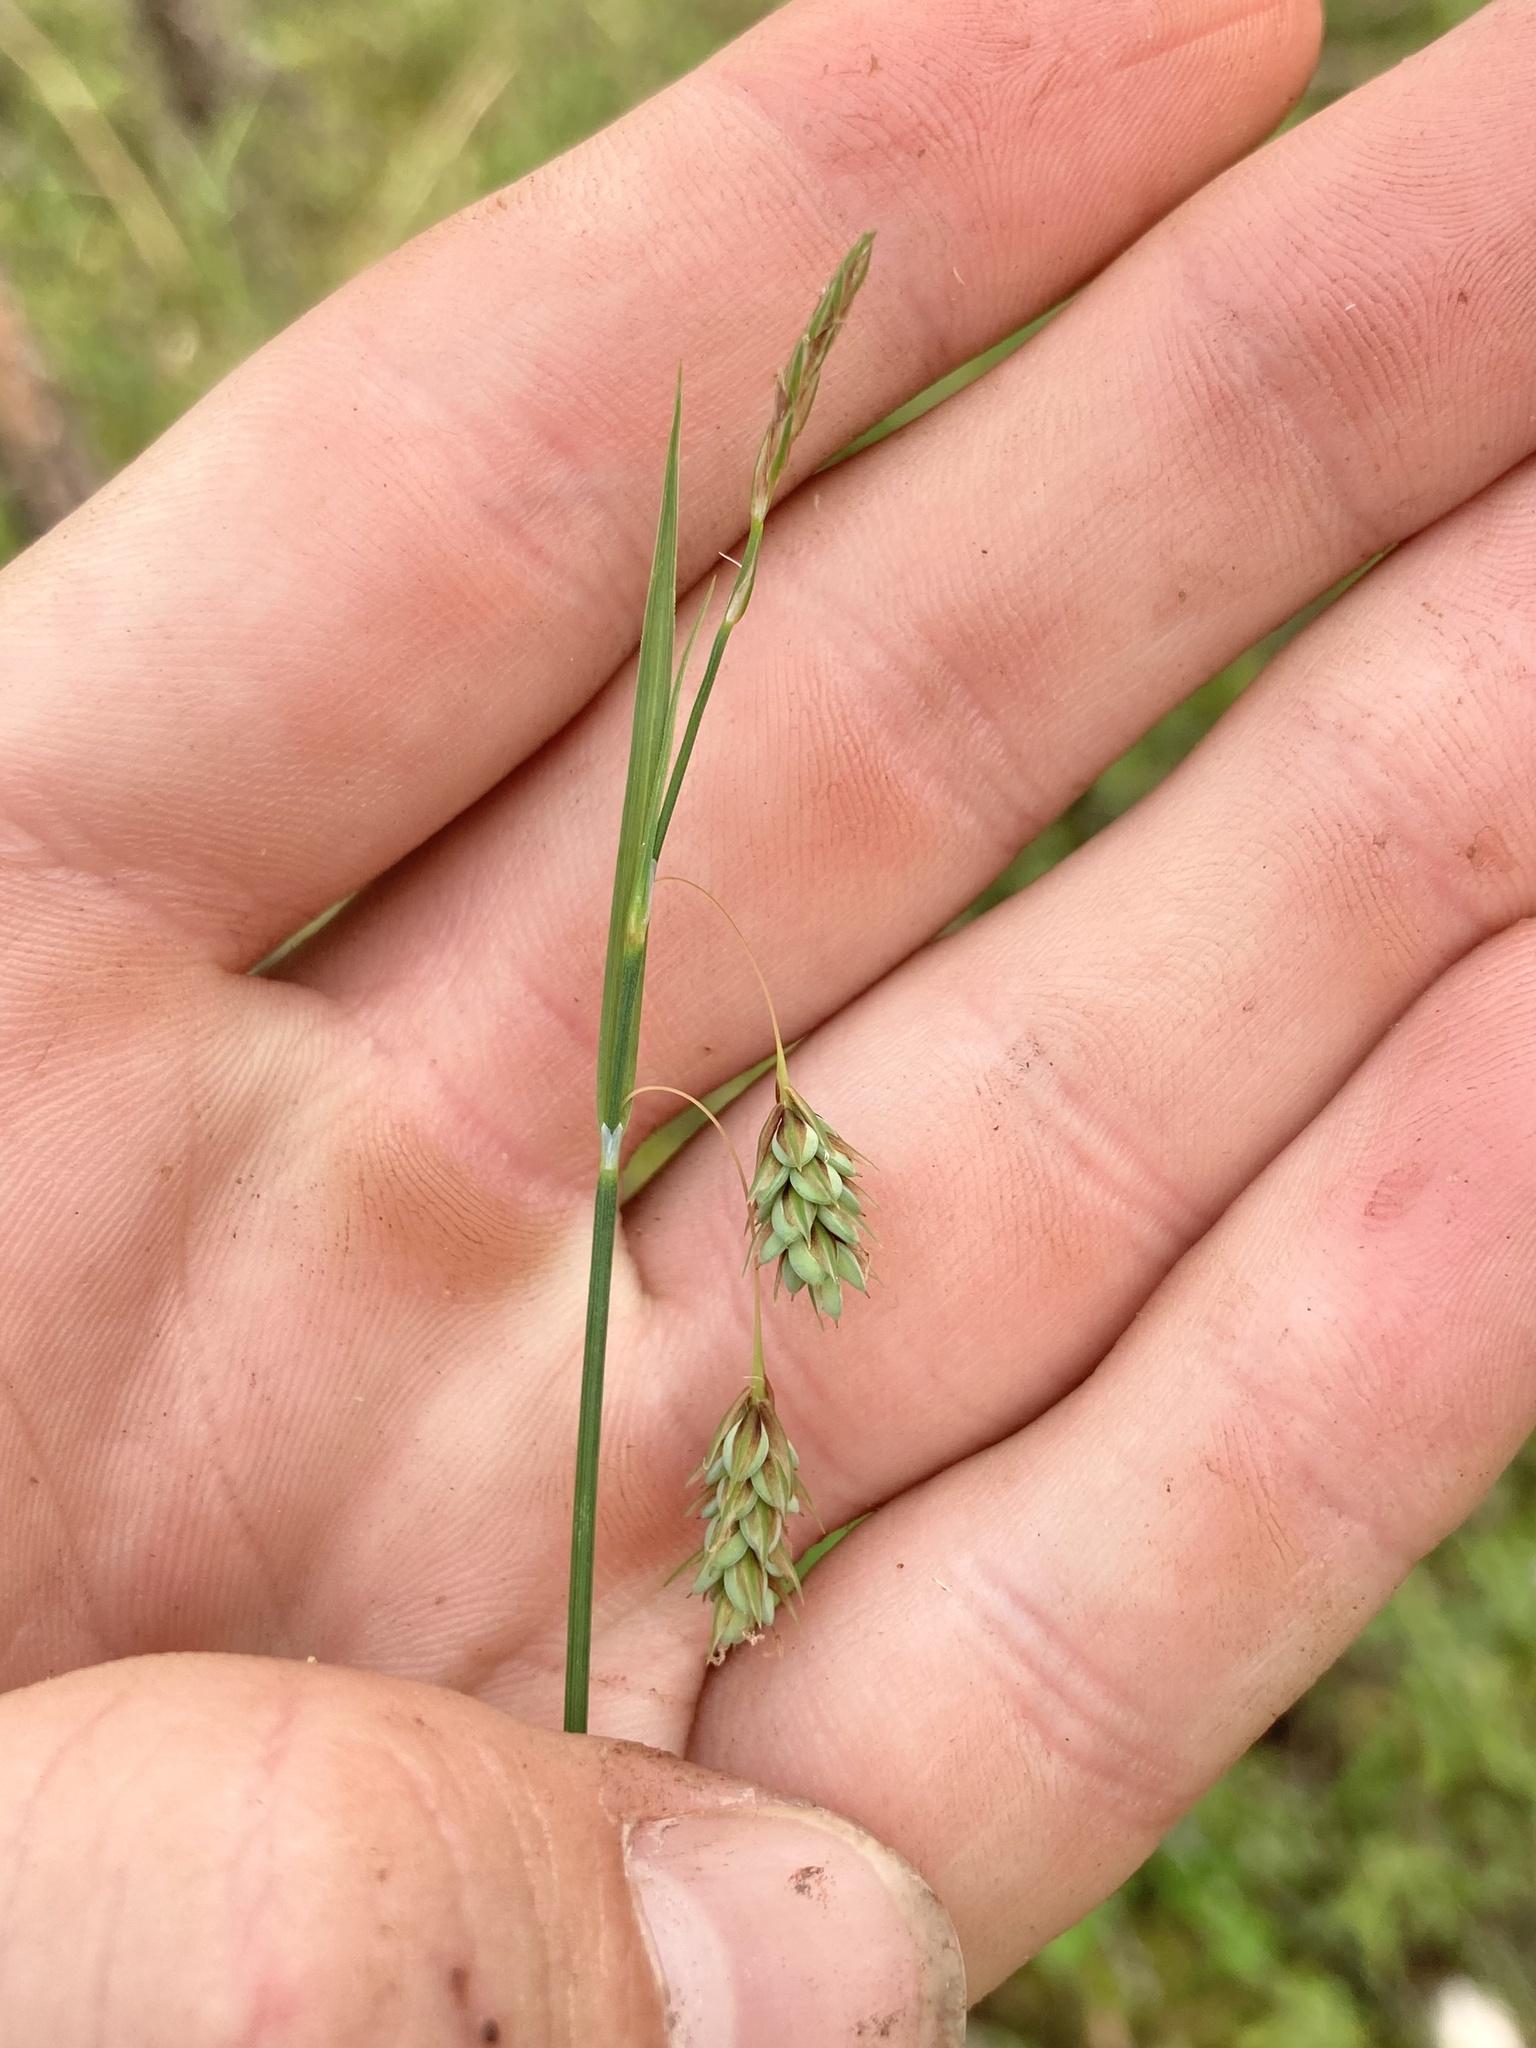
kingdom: Plantae
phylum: Tracheophyta
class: Liliopsida
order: Poales
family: Cyperaceae
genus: Carex
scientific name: Carex magellanica
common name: Bog sedge
